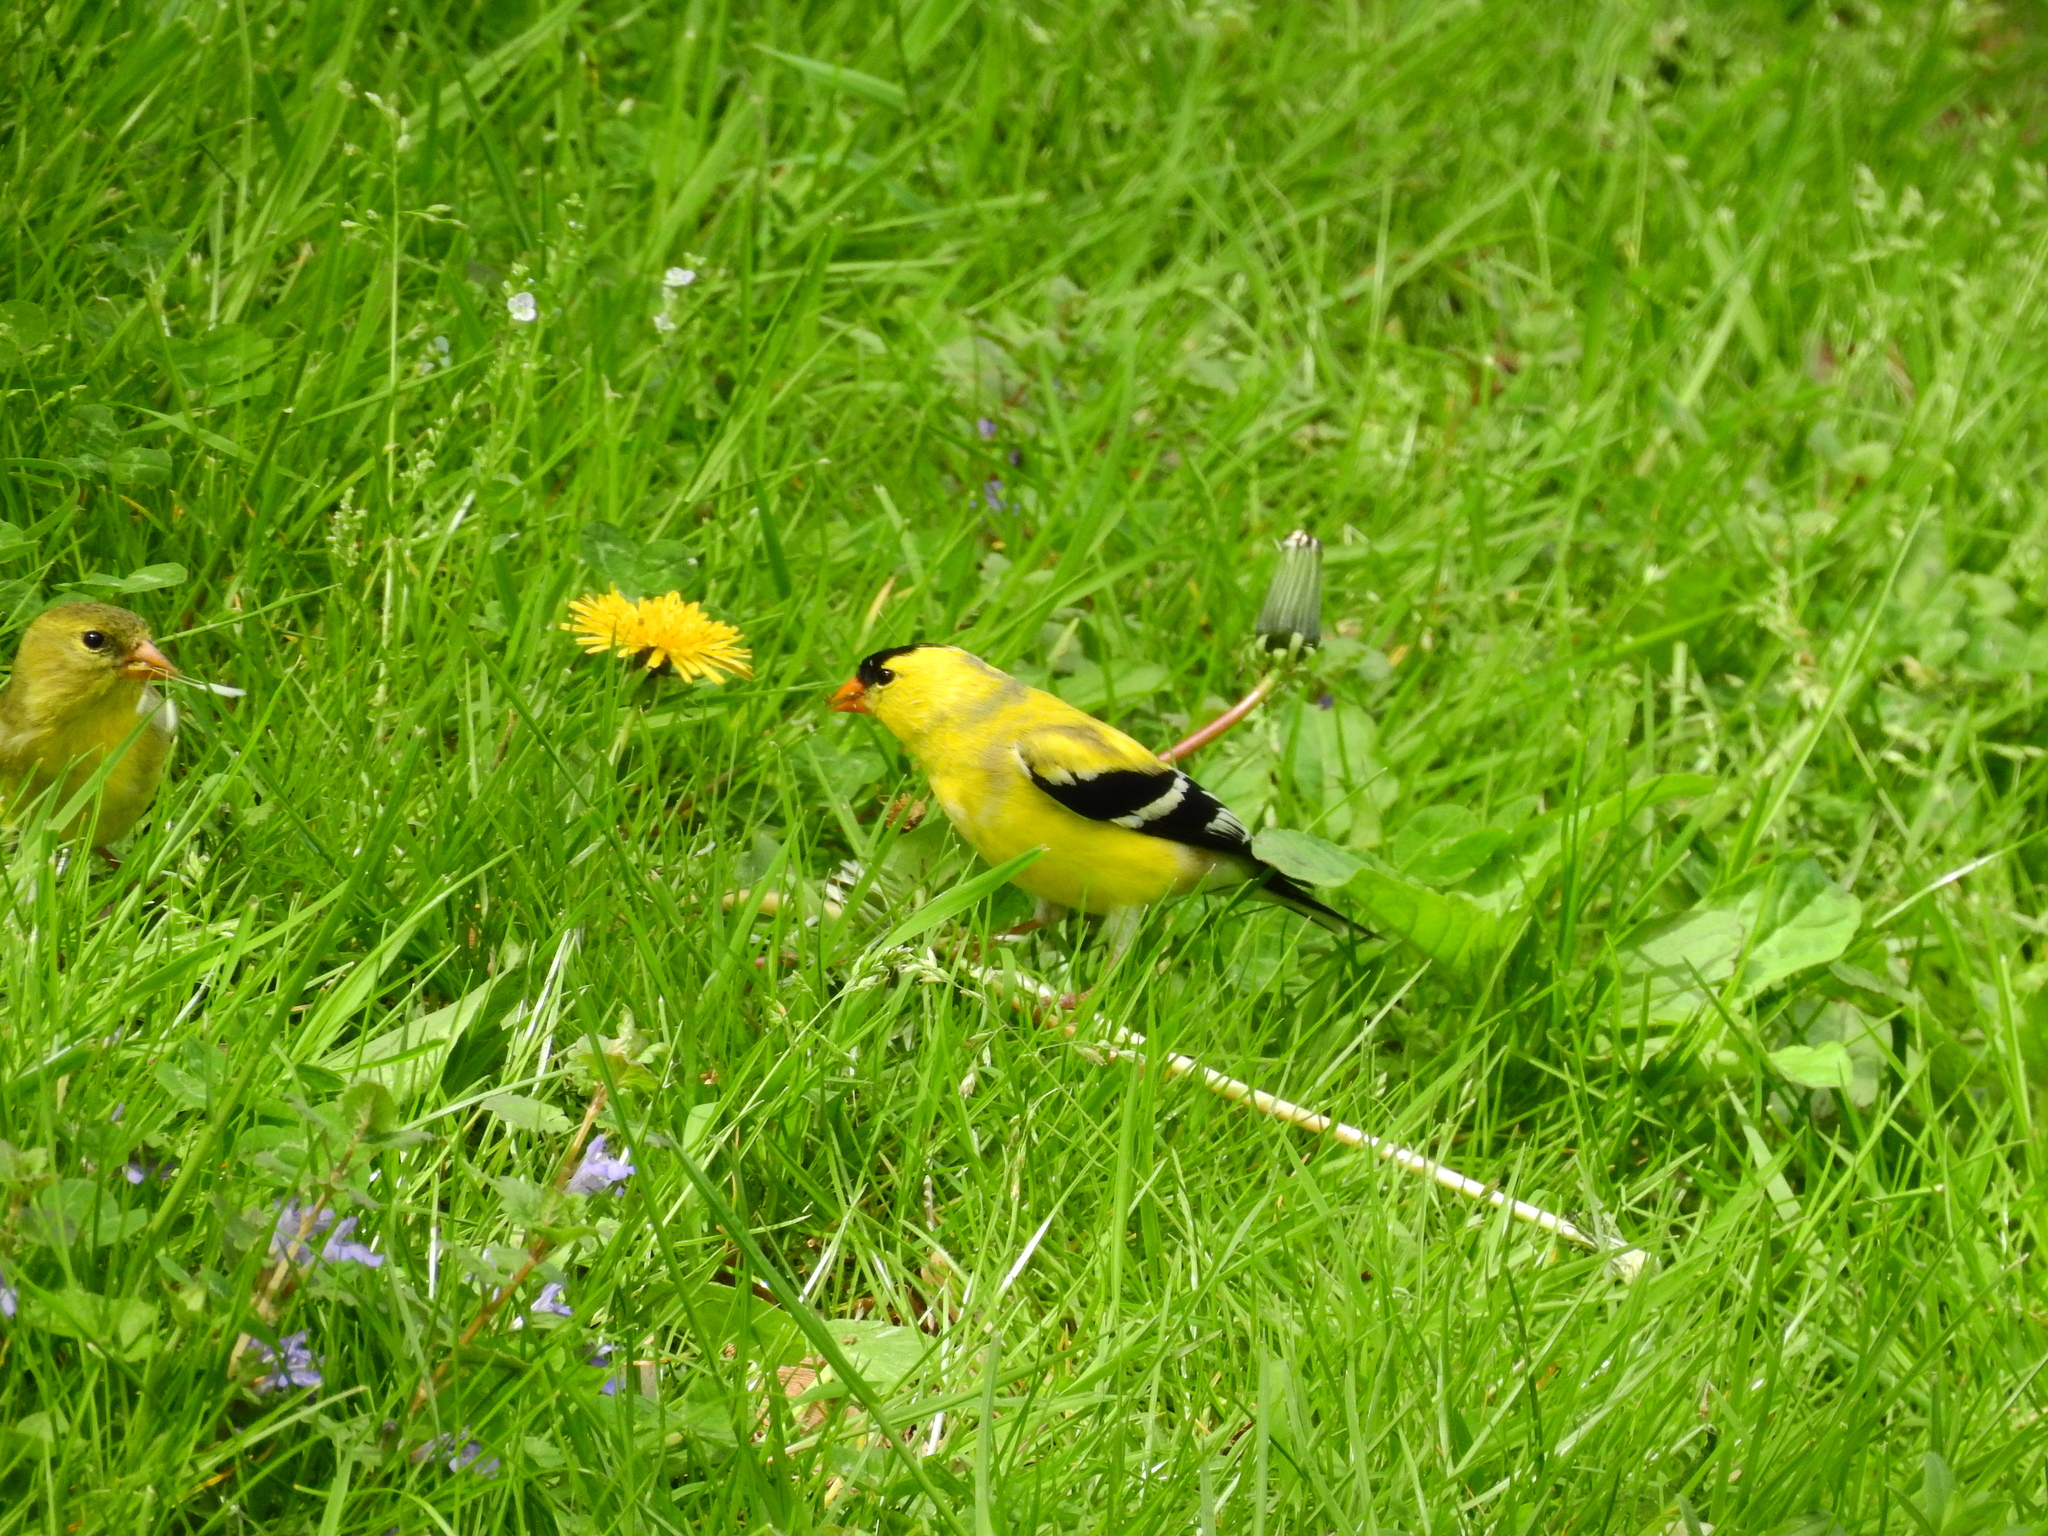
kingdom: Animalia
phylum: Chordata
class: Aves
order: Passeriformes
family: Fringillidae
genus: Spinus
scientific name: Spinus tristis
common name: American goldfinch
